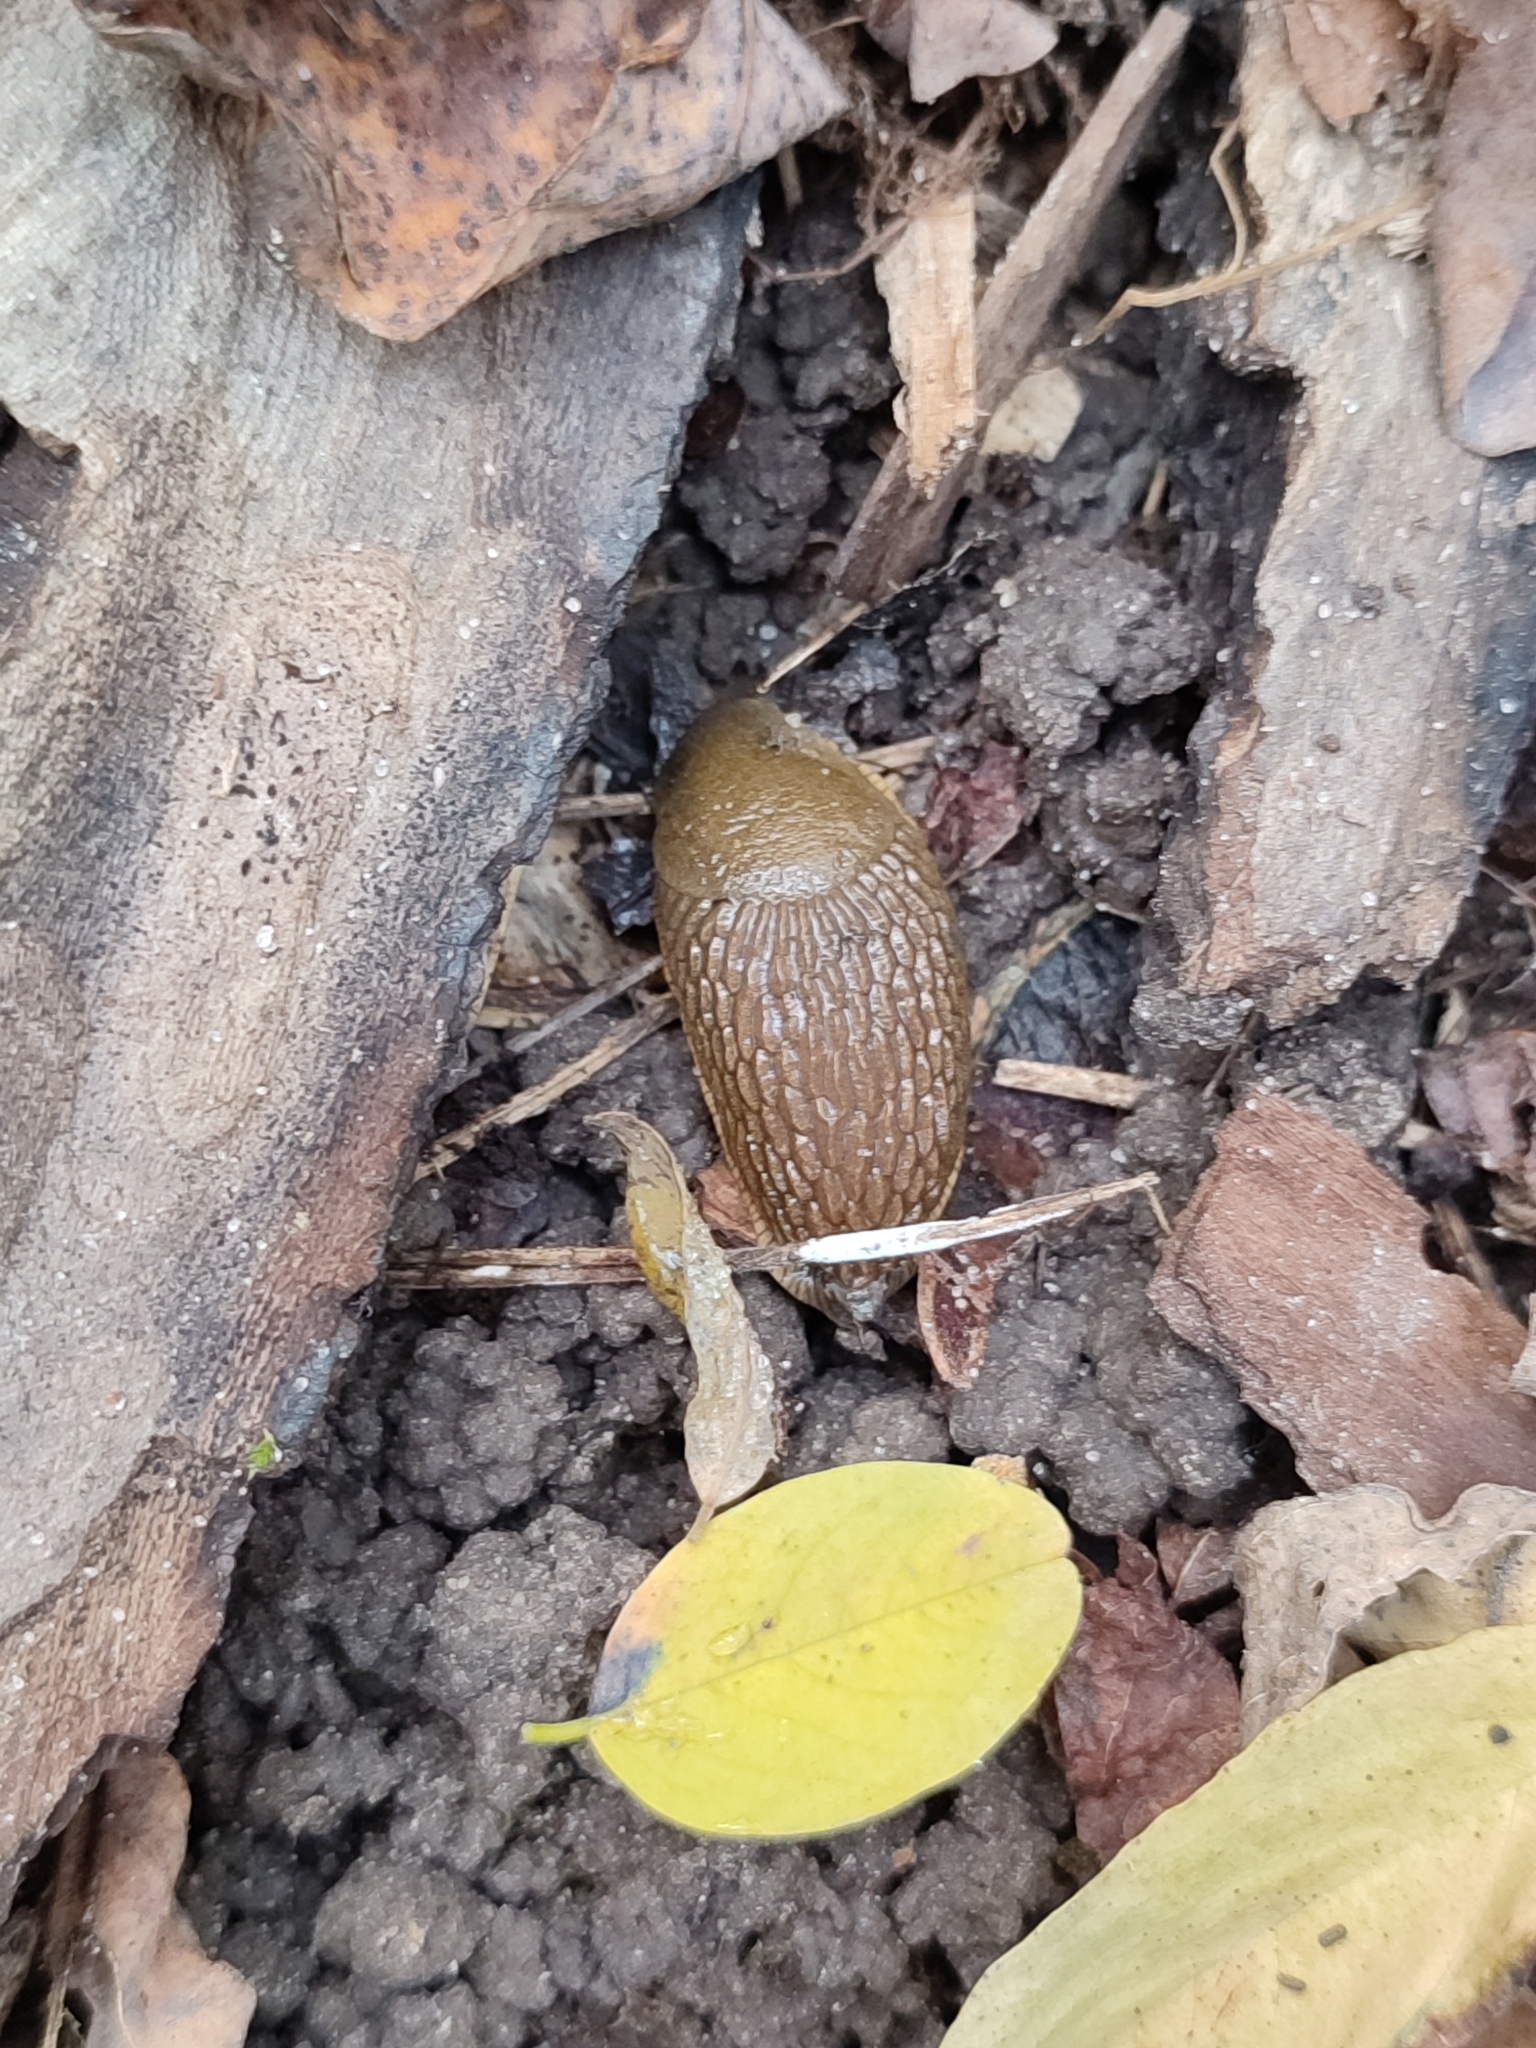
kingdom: Animalia
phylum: Mollusca
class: Gastropoda
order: Stylommatophora
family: Arionidae
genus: Arion
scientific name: Arion vulgaris
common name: Lusitanian slug
